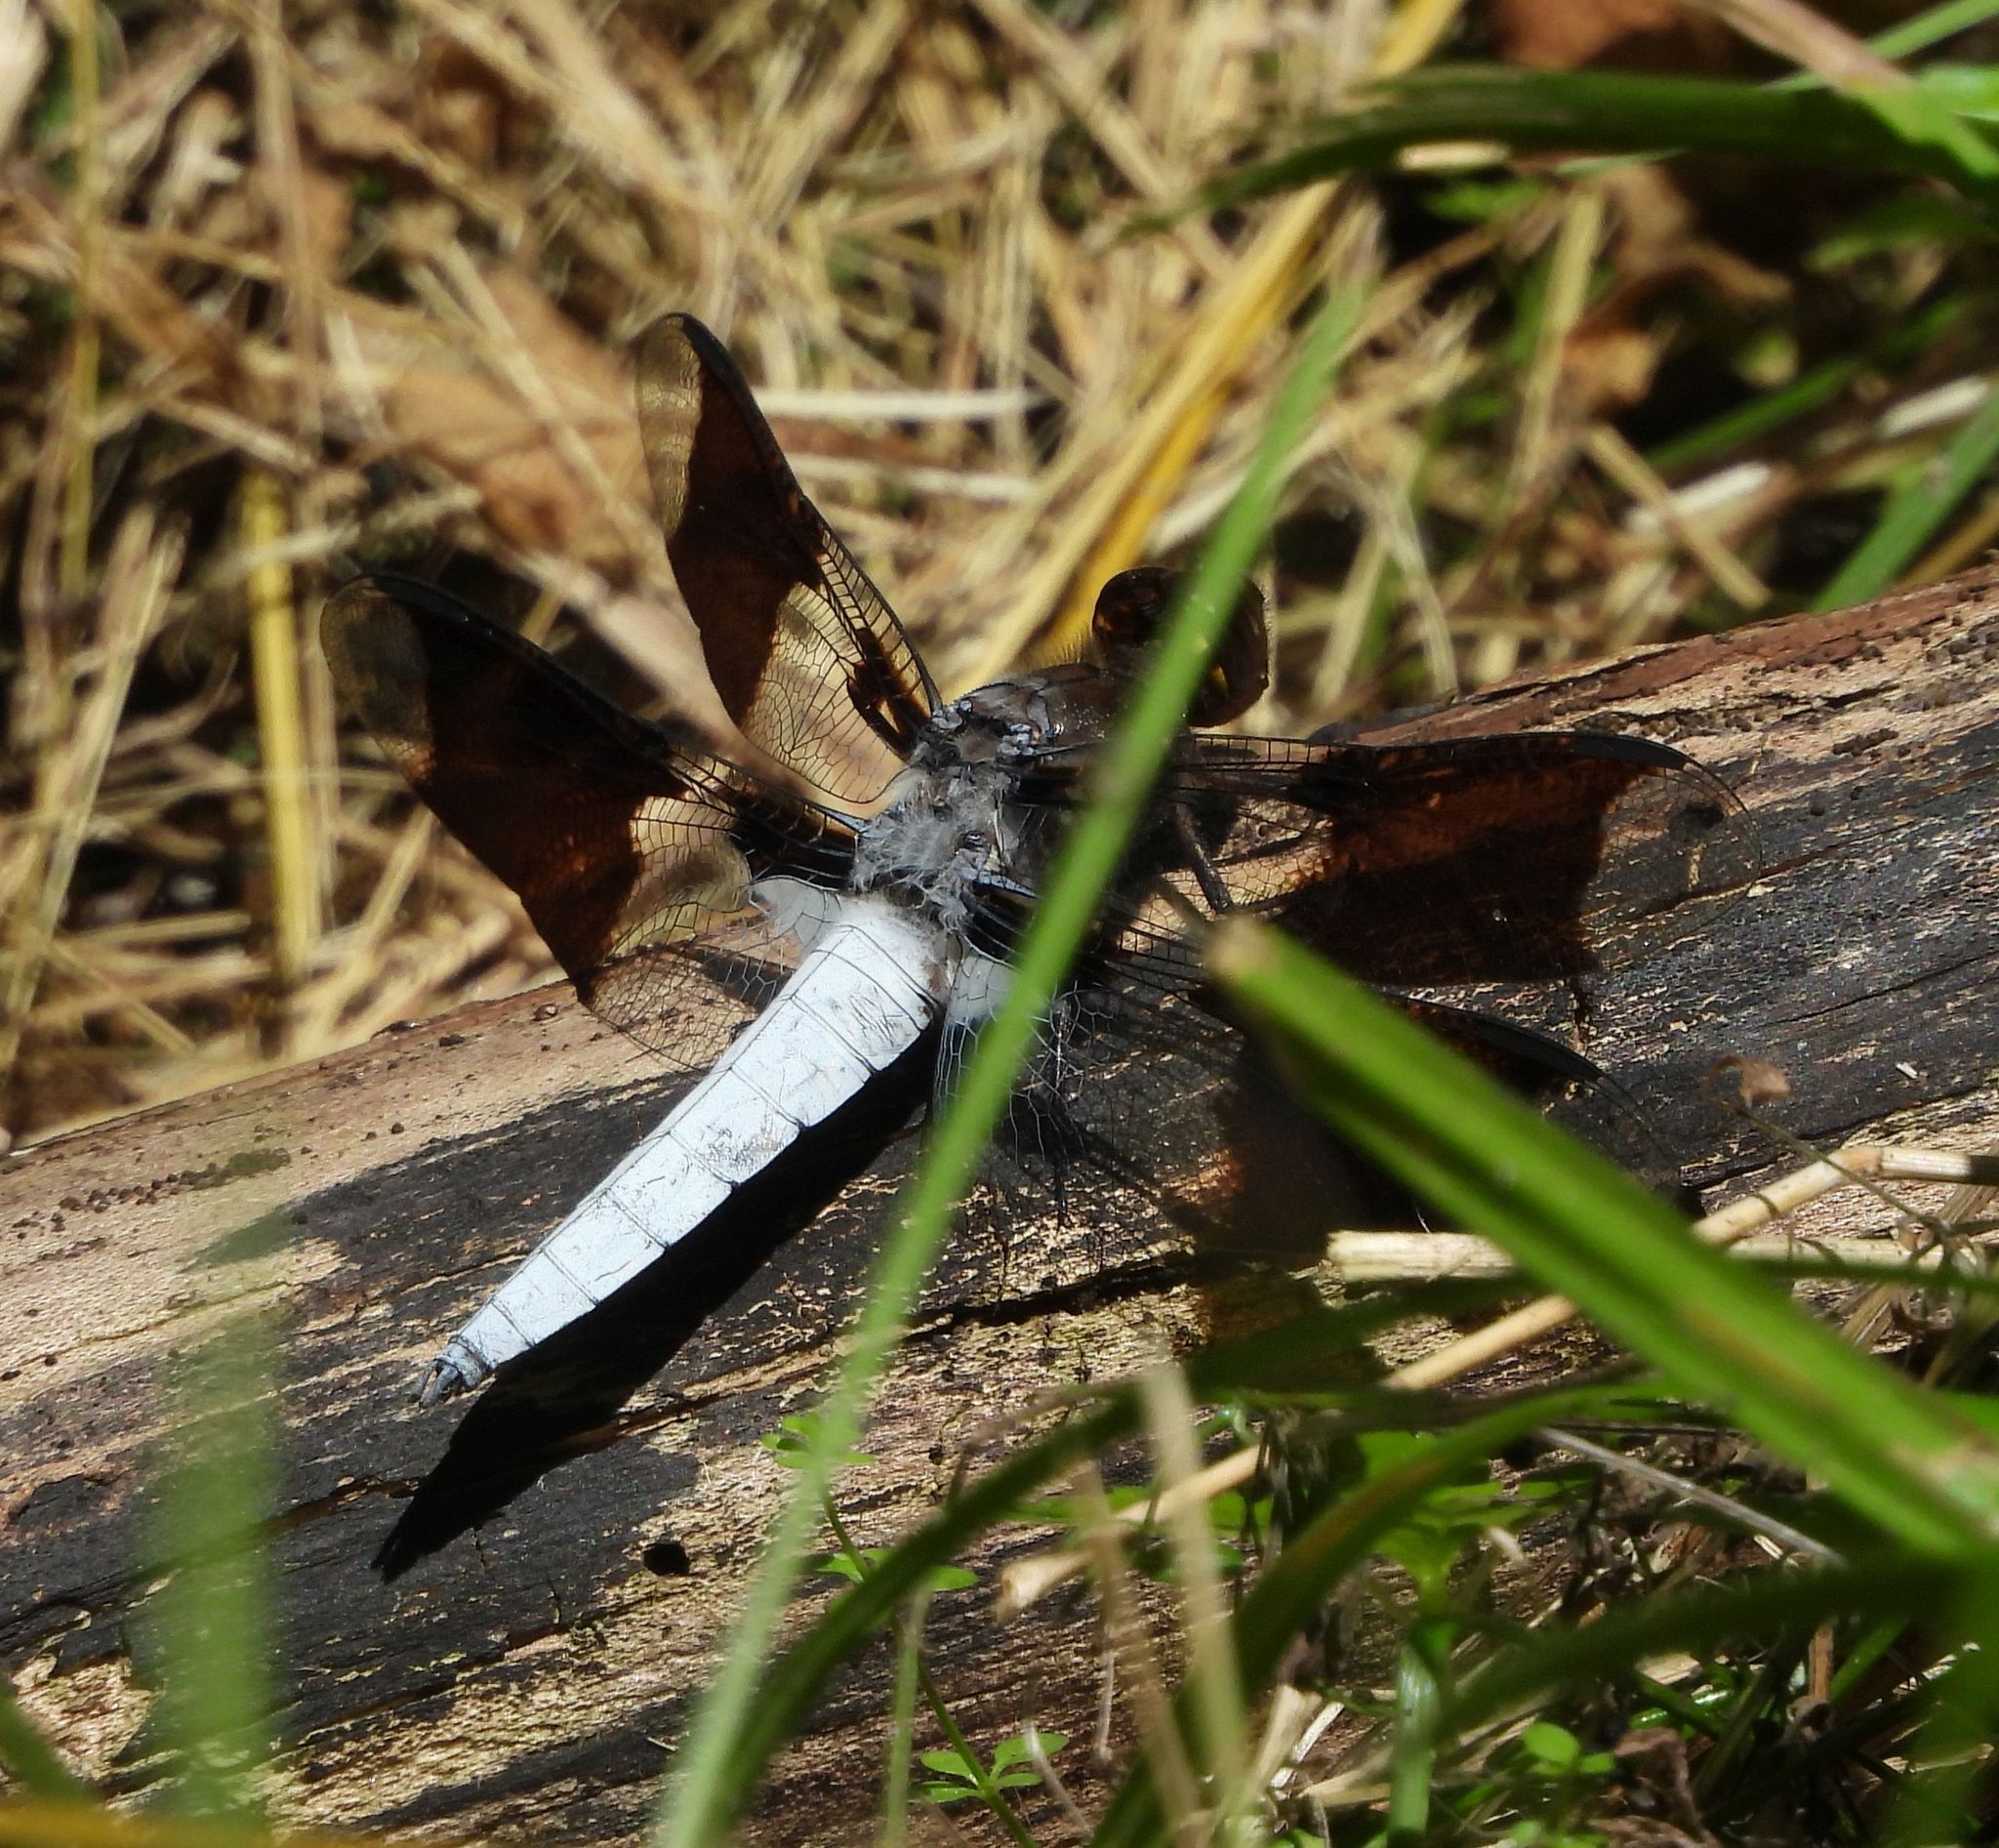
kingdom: Animalia
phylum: Arthropoda
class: Insecta
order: Odonata
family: Libellulidae
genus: Plathemis
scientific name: Plathemis lydia
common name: Common whitetail
